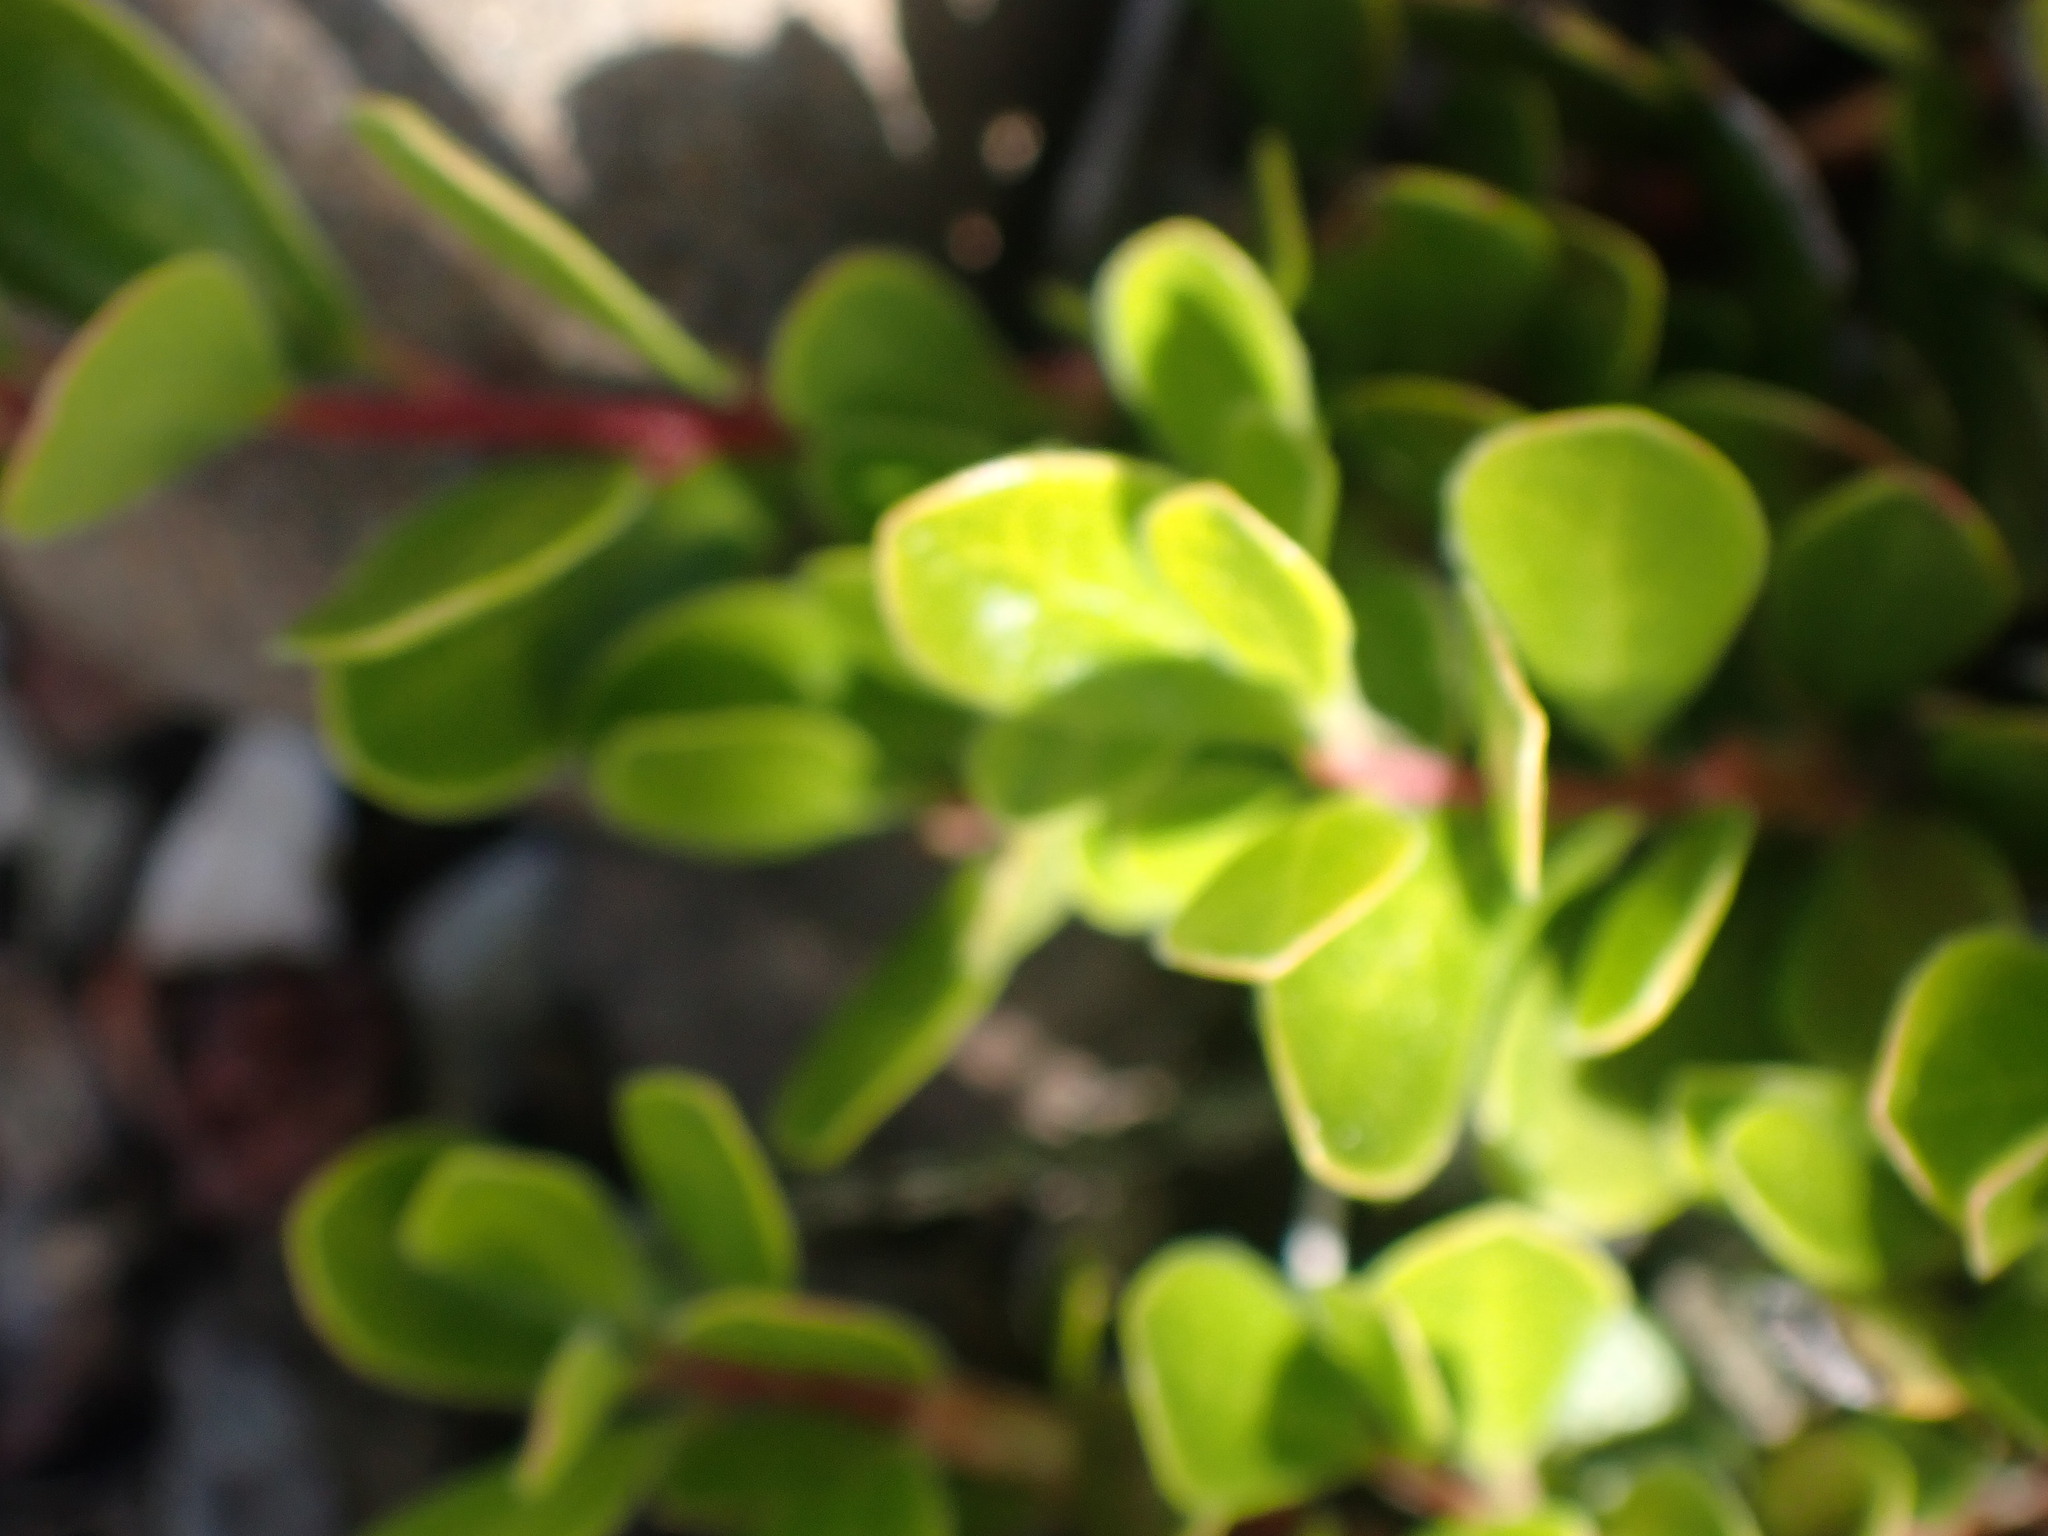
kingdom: Plantae
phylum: Tracheophyta
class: Magnoliopsida
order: Ericales
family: Ericaceae
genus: Arctostaphylos
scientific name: Arctostaphylos uva-ursi
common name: Bearberry
